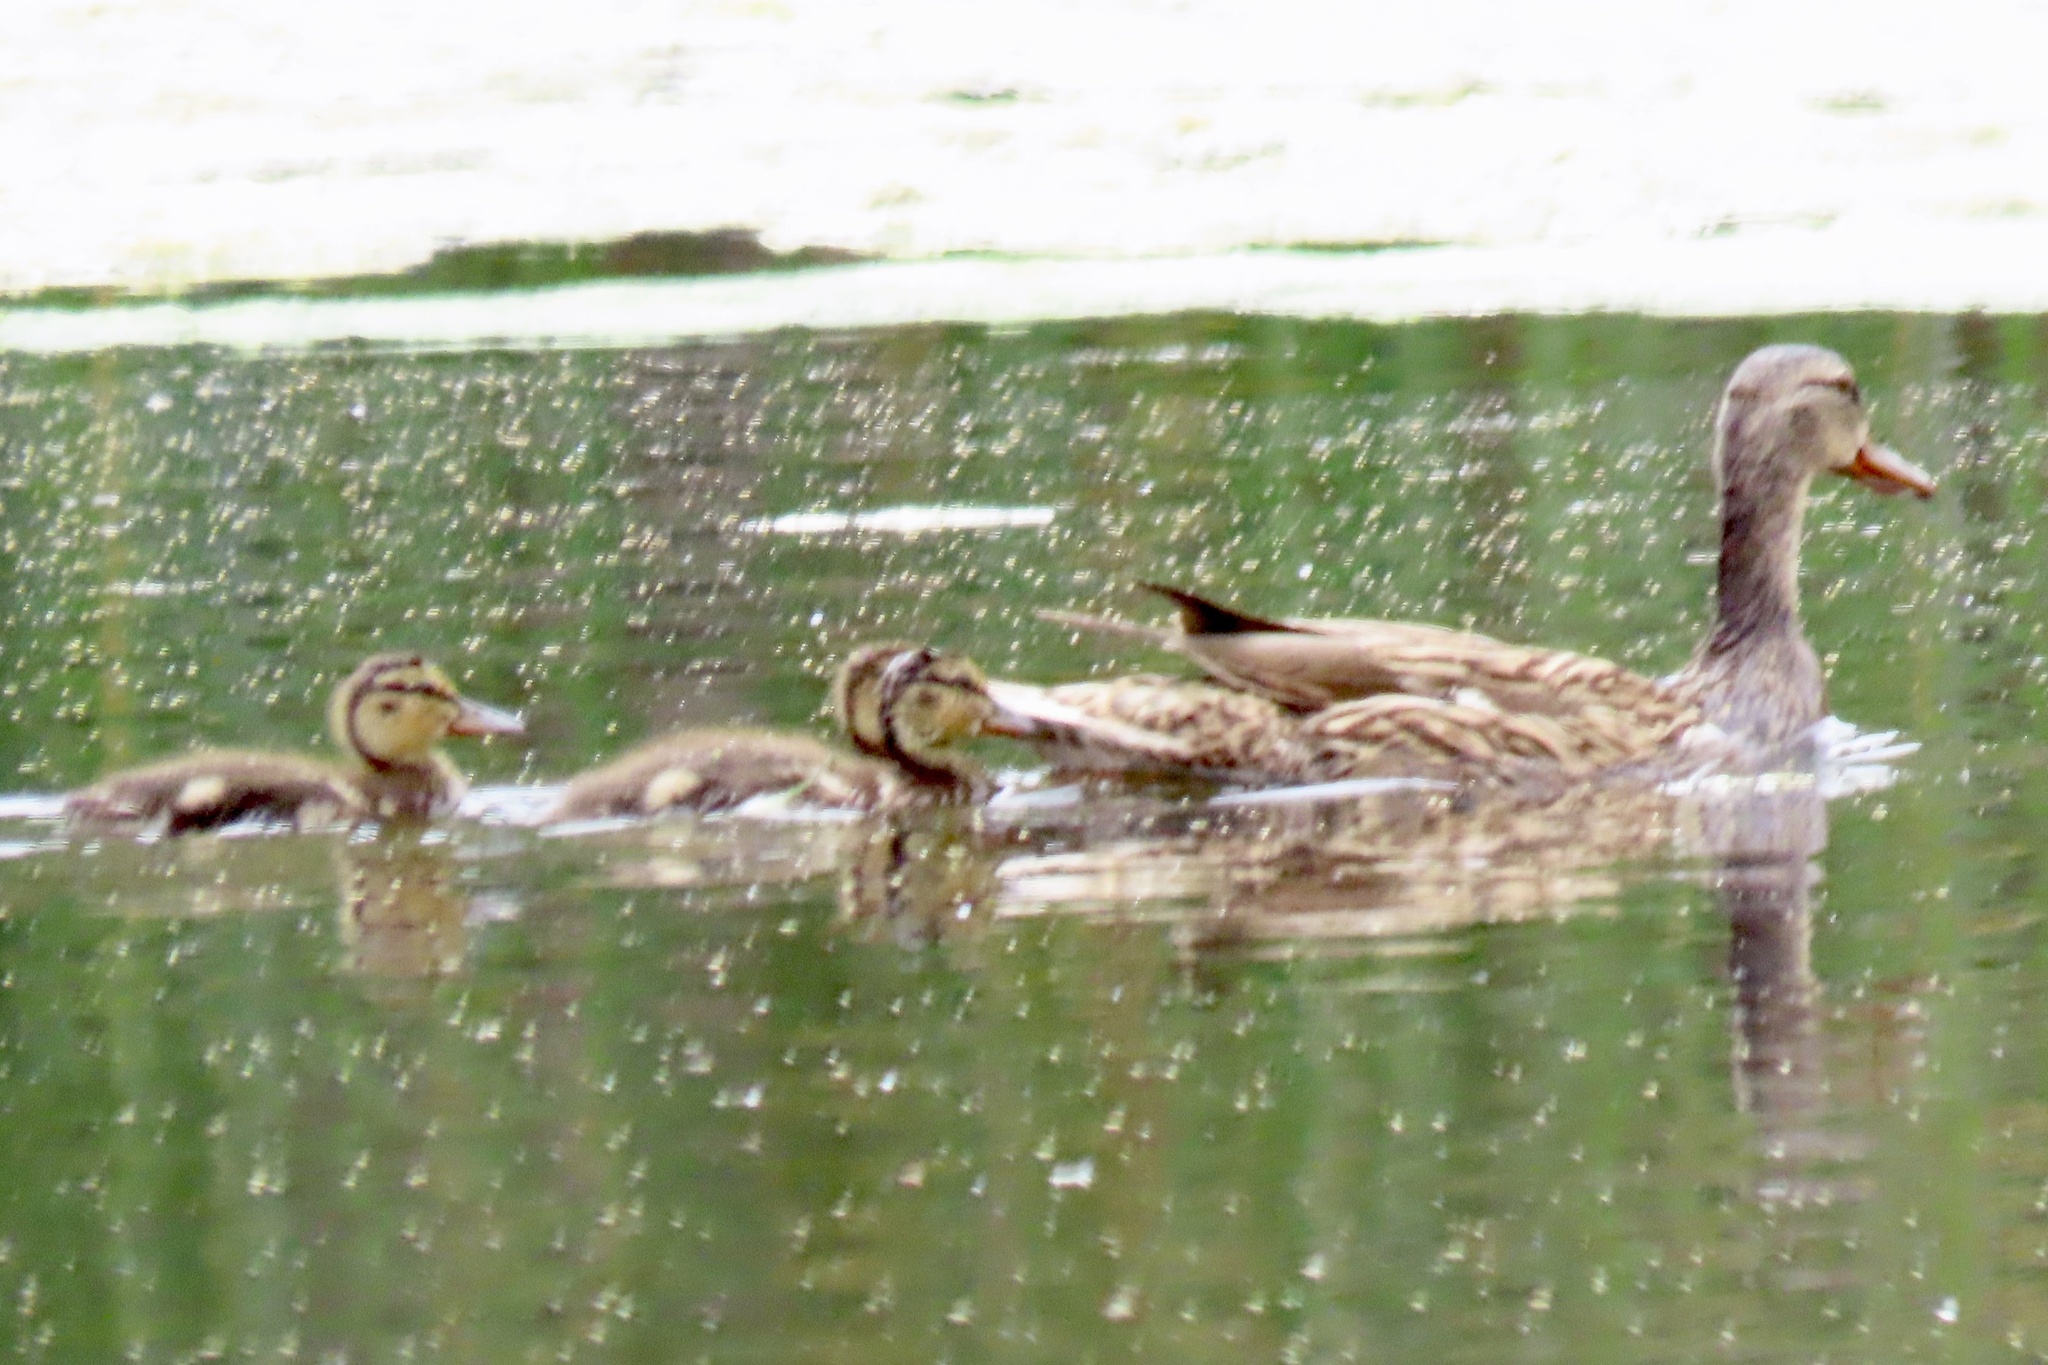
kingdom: Animalia
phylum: Chordata
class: Aves
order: Anseriformes
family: Anatidae
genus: Anas
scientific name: Anas platyrhynchos
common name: Mallard
